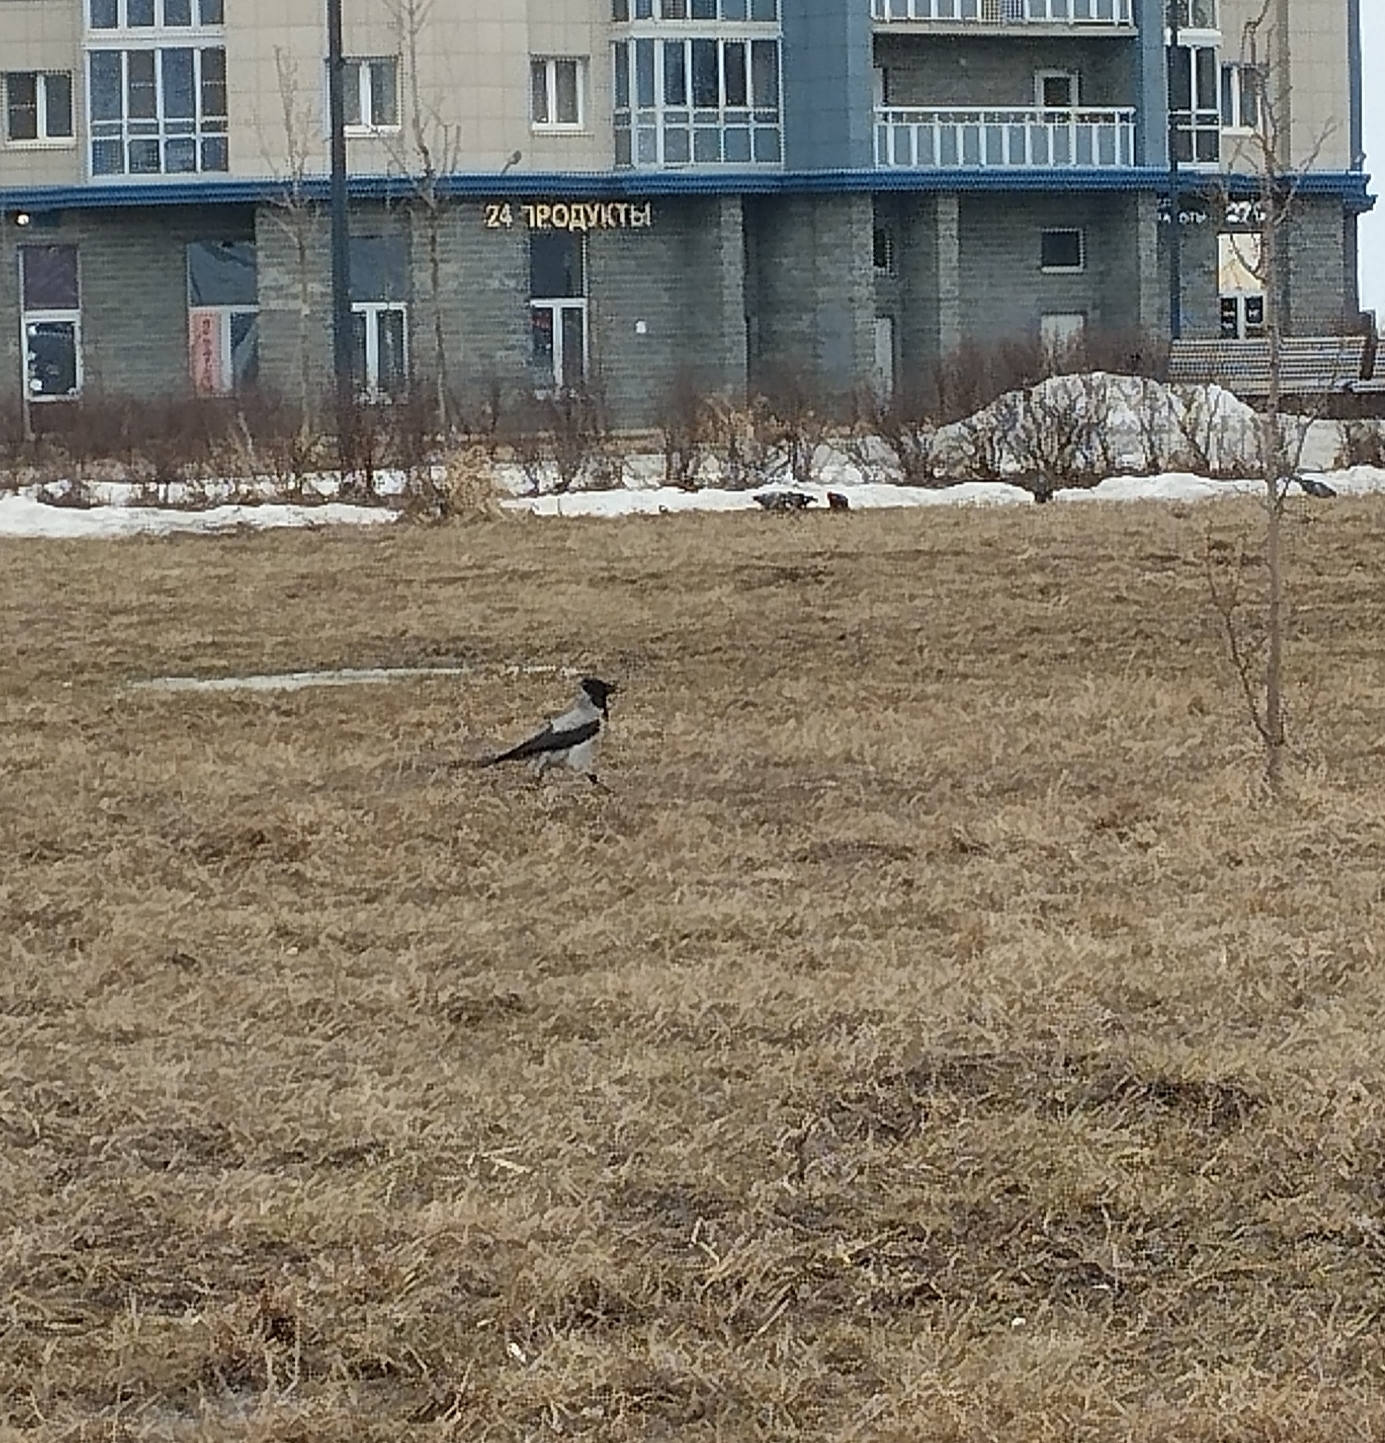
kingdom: Animalia
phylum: Chordata
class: Aves
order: Passeriformes
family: Corvidae
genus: Corvus
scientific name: Corvus cornix
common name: Hooded crow
